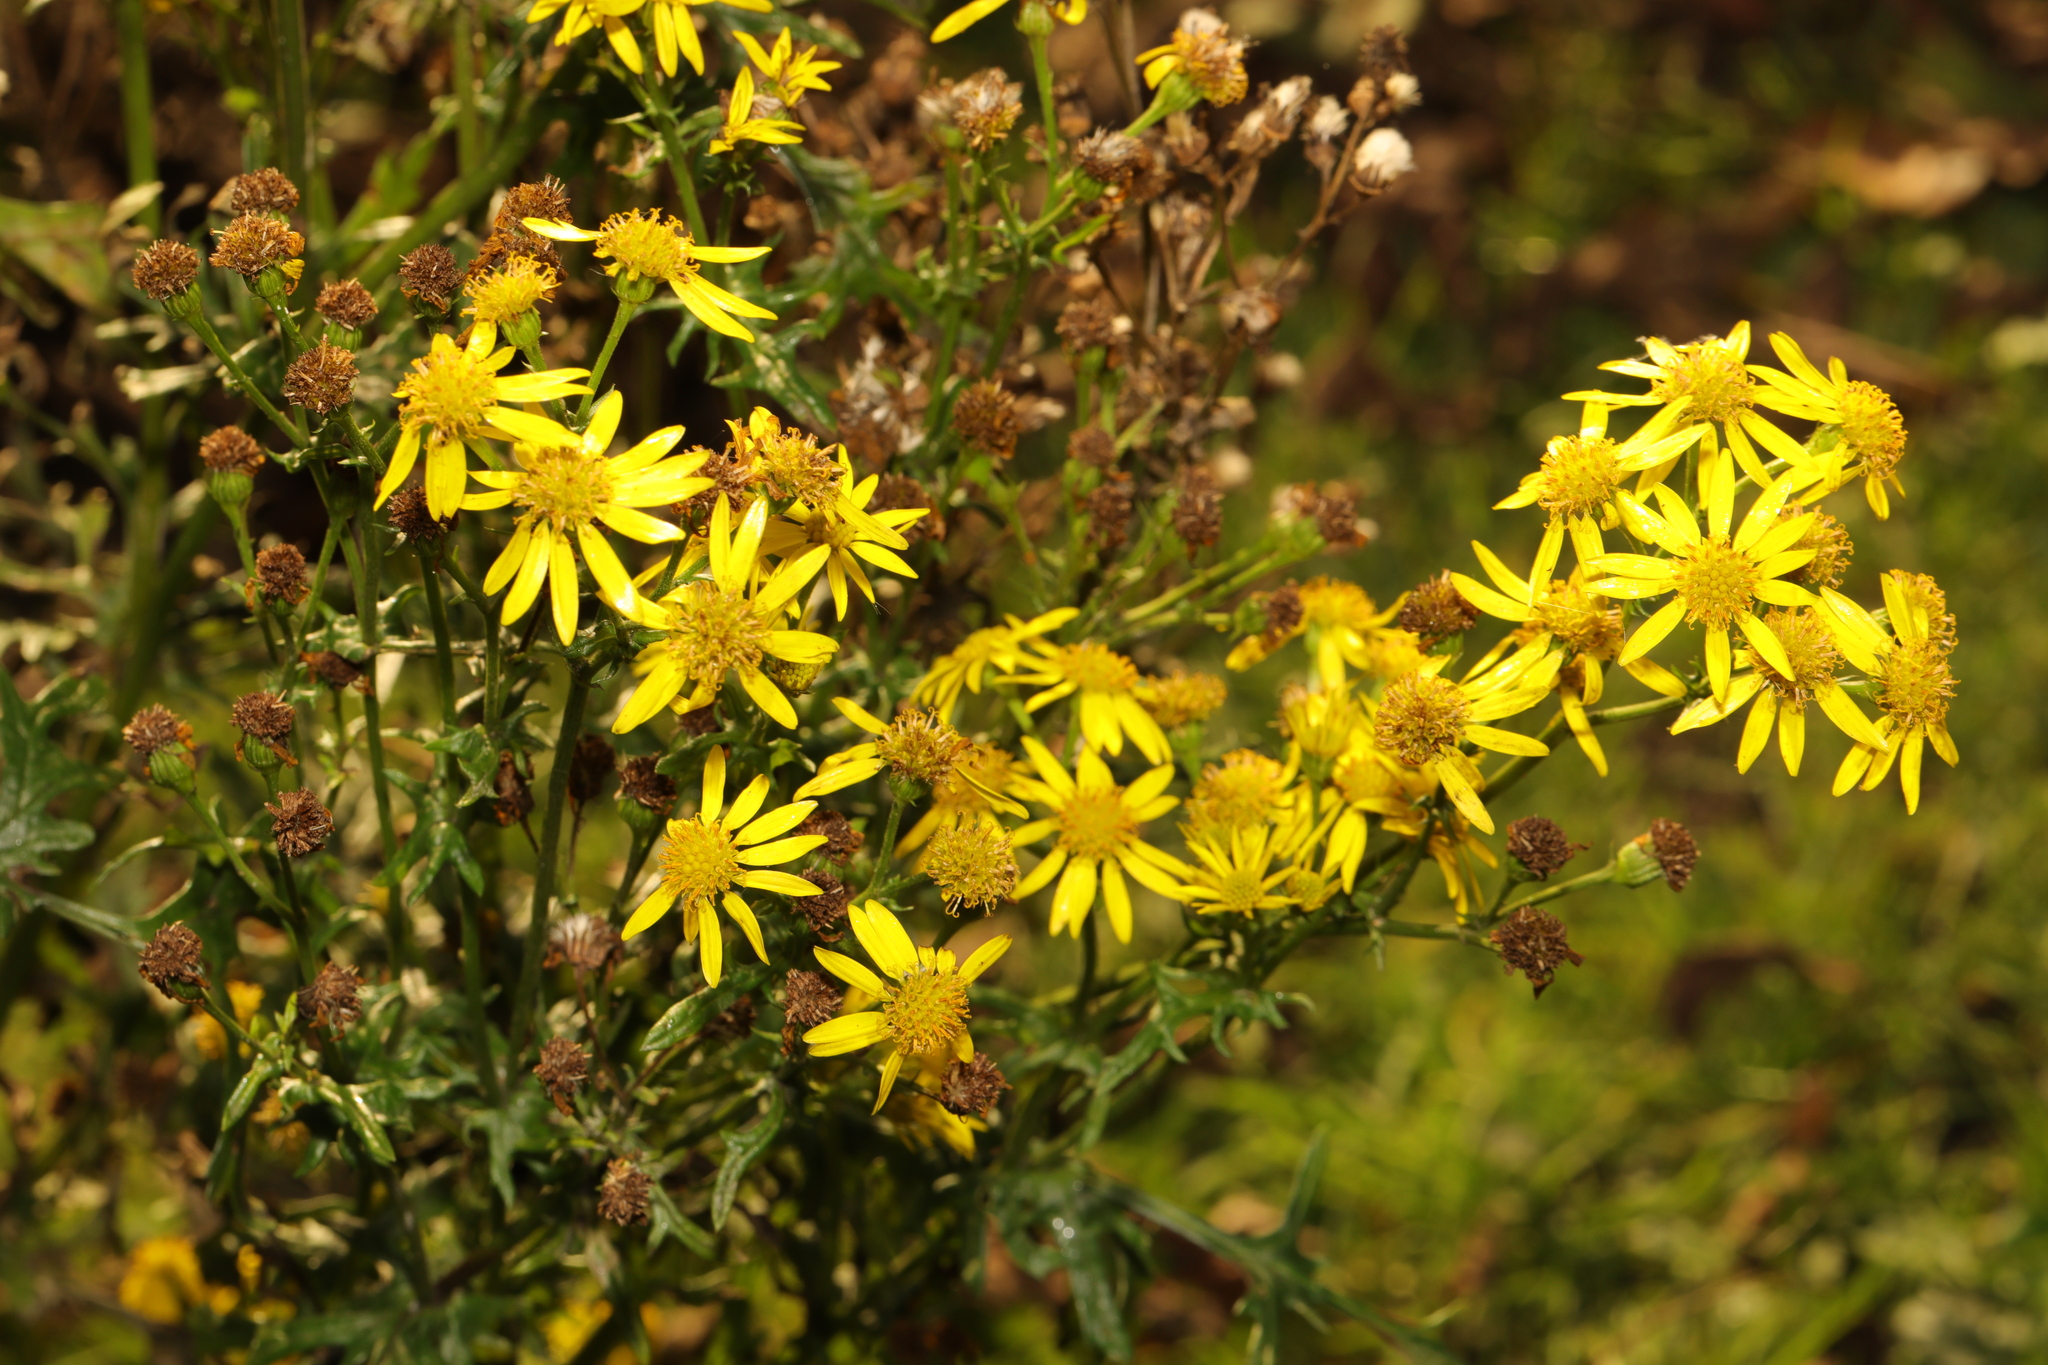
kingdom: Plantae
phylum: Tracheophyta
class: Magnoliopsida
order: Asterales
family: Asteraceae
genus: Jacobaea
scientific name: Jacobaea vulgaris
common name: Stinking willie
